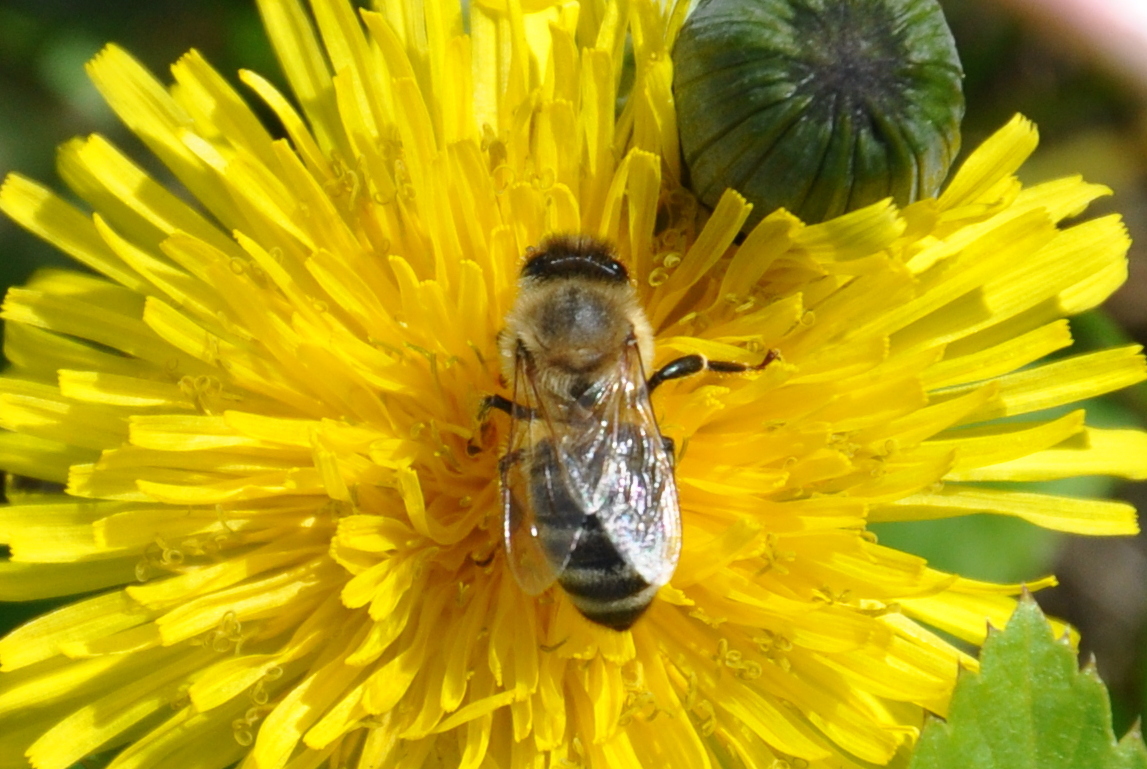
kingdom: Animalia
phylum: Arthropoda
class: Insecta
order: Hymenoptera
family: Apidae
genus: Apis
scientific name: Apis mellifera
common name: Honey bee
